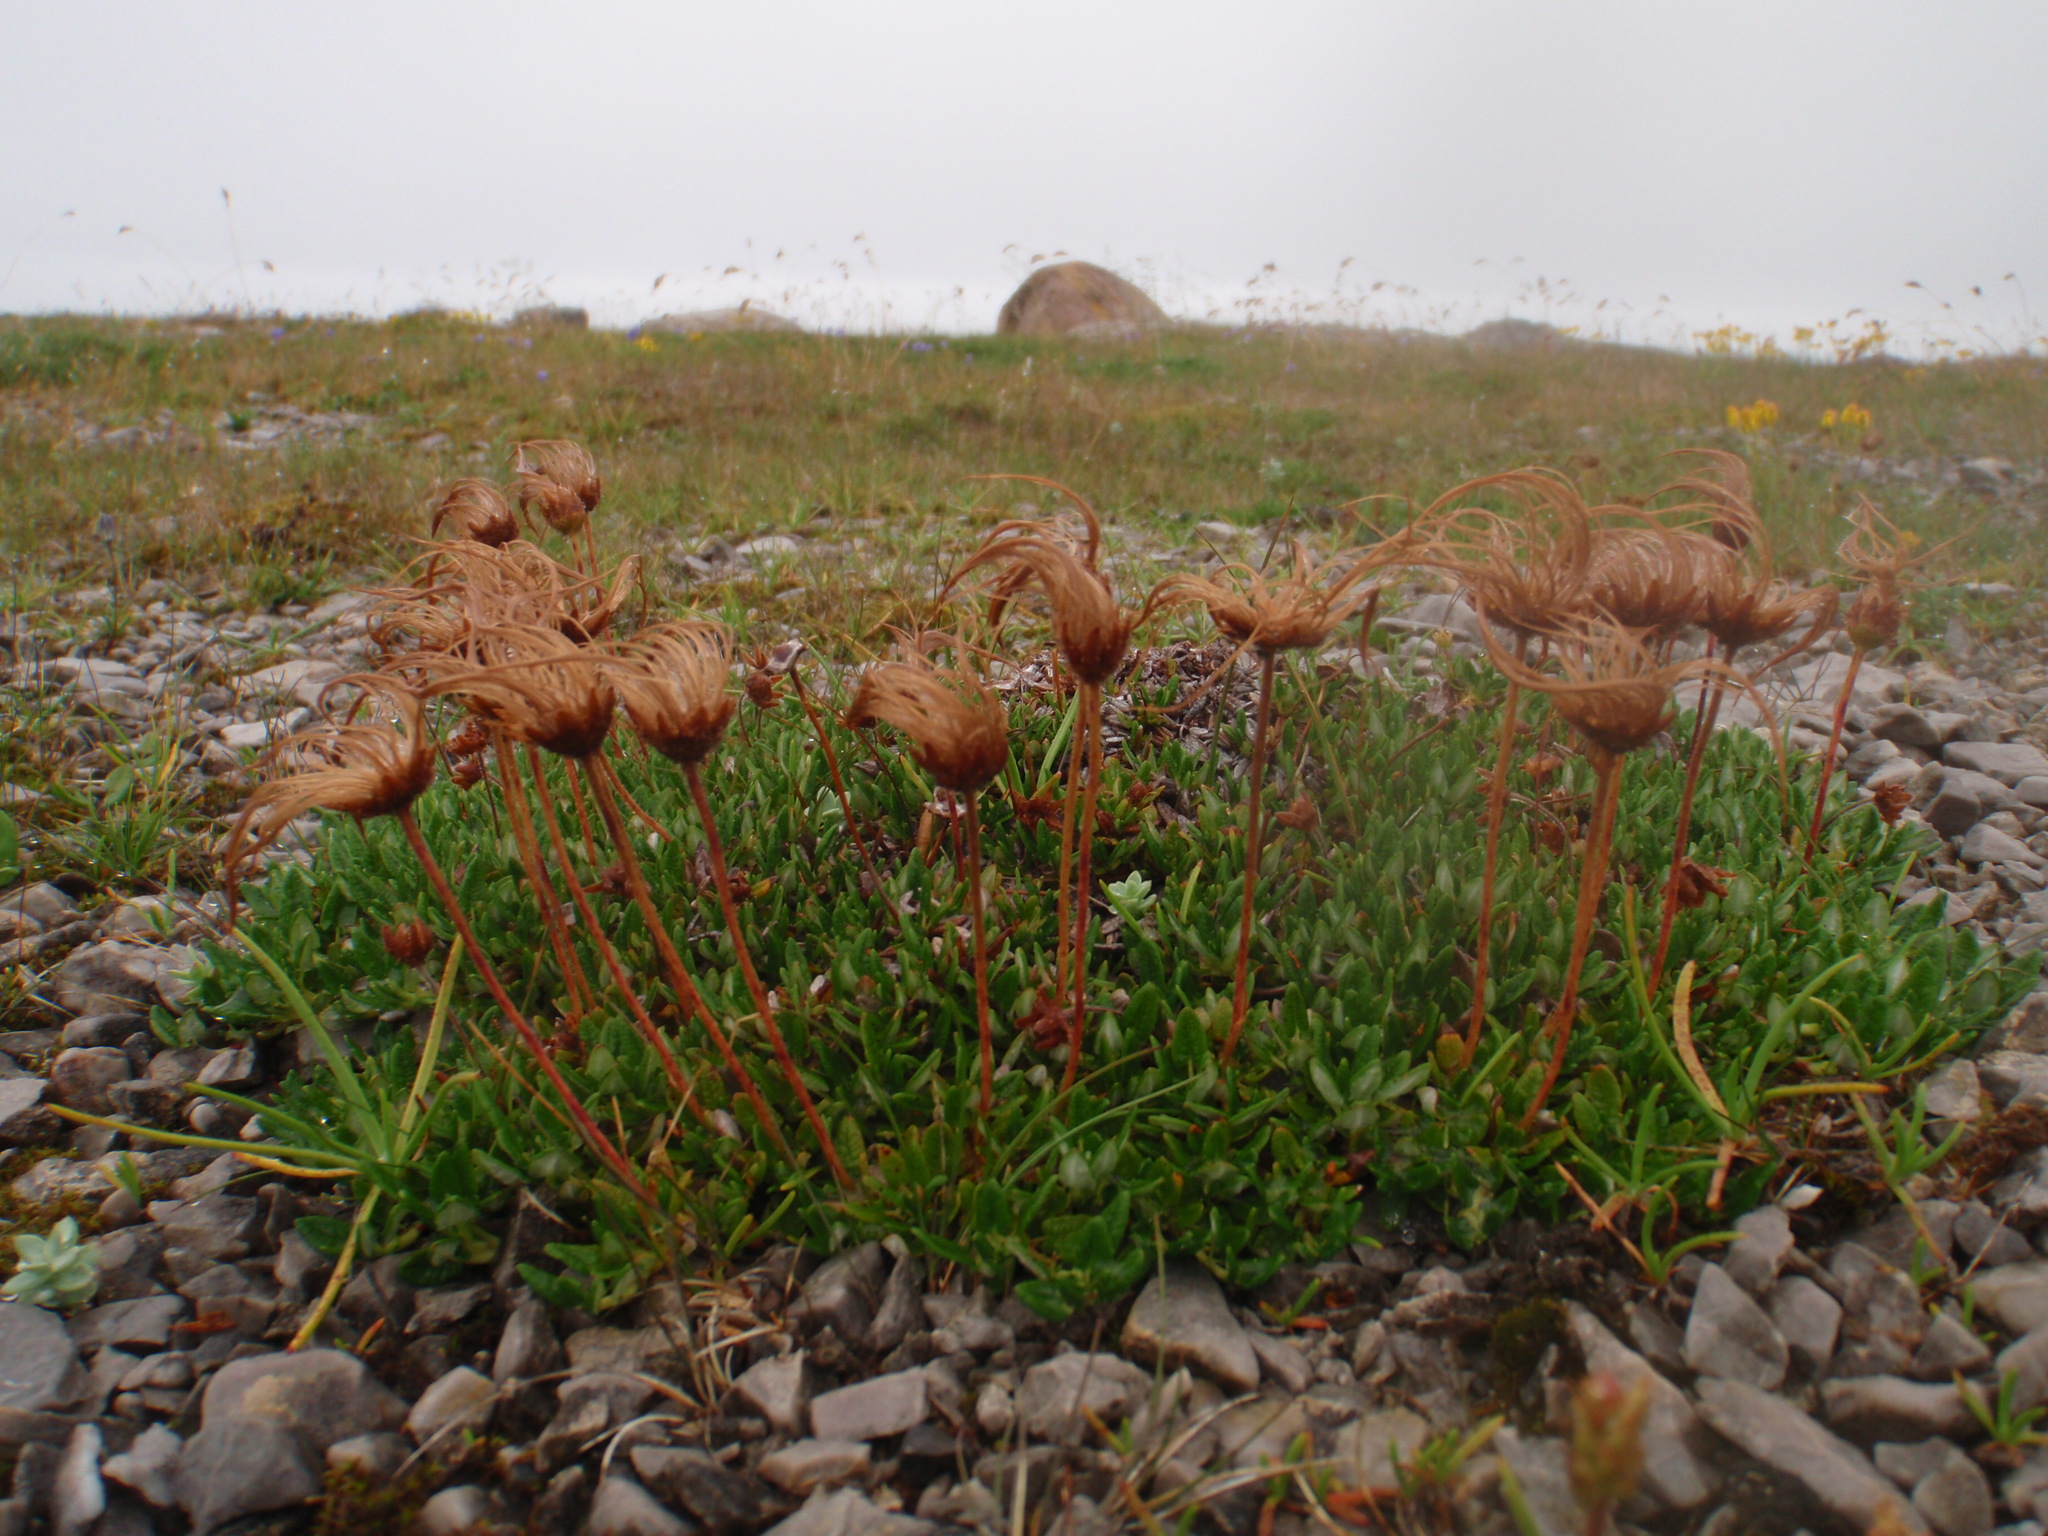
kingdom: Plantae
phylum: Tracheophyta
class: Magnoliopsida
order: Rosales
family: Rosaceae
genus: Dryas
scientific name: Dryas integrifolia
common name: Entire-leaved mountain avens
